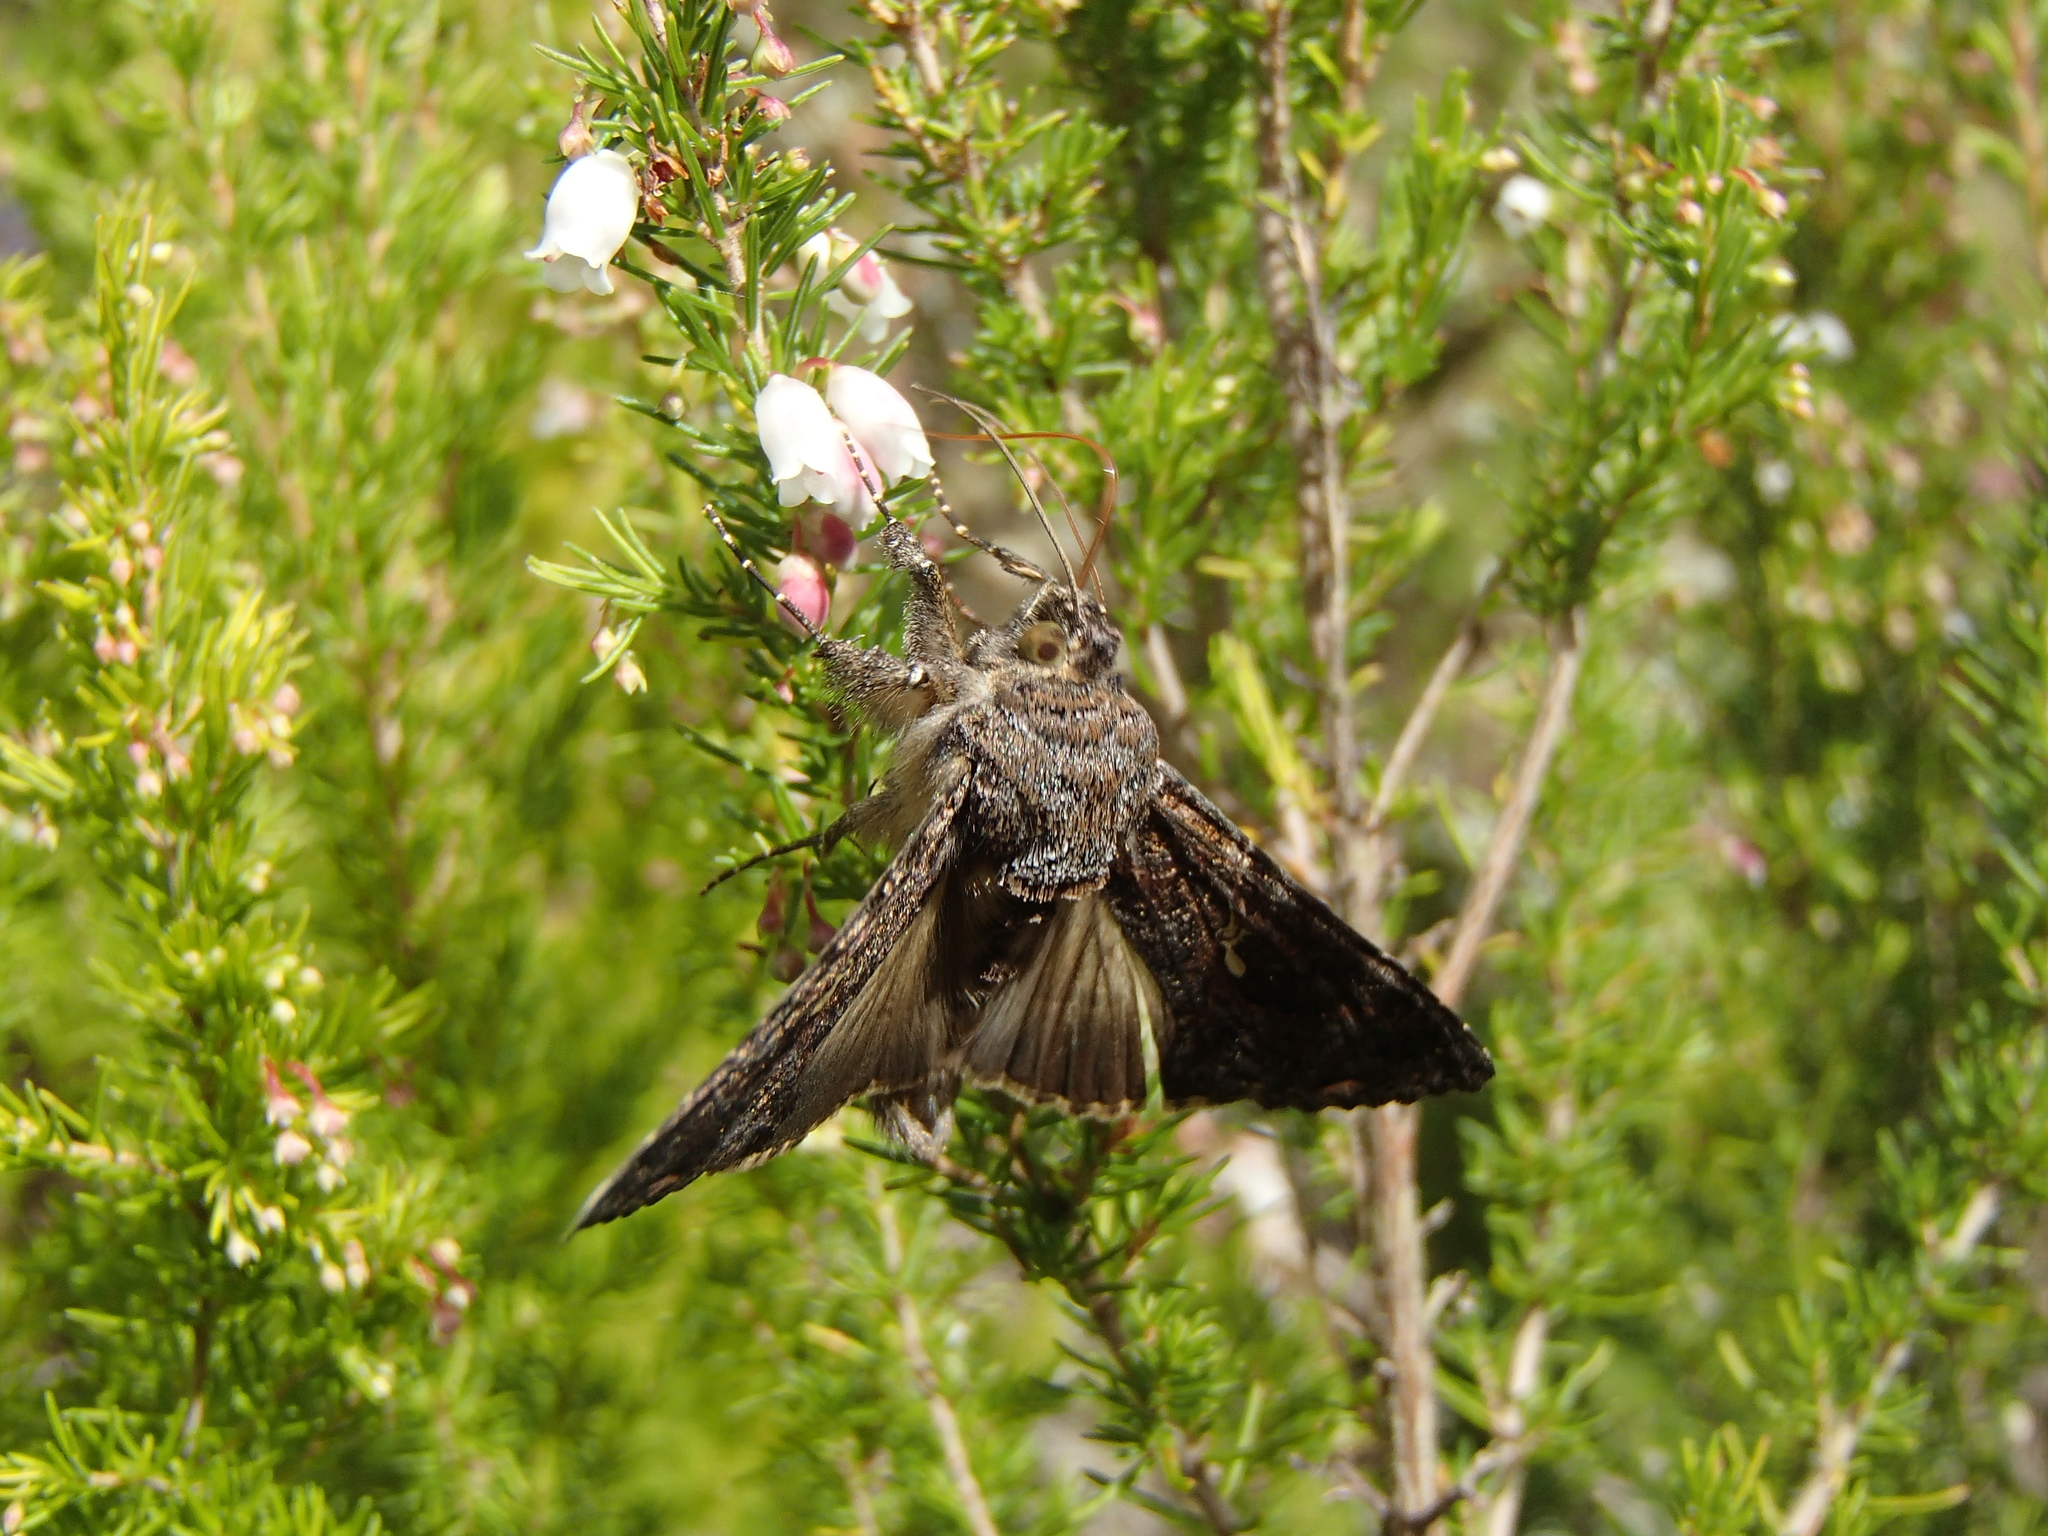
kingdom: Animalia
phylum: Arthropoda
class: Insecta
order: Lepidoptera
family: Noctuidae
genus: Ctenoplusia
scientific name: Ctenoplusia limbirena
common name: Scar bank gem
